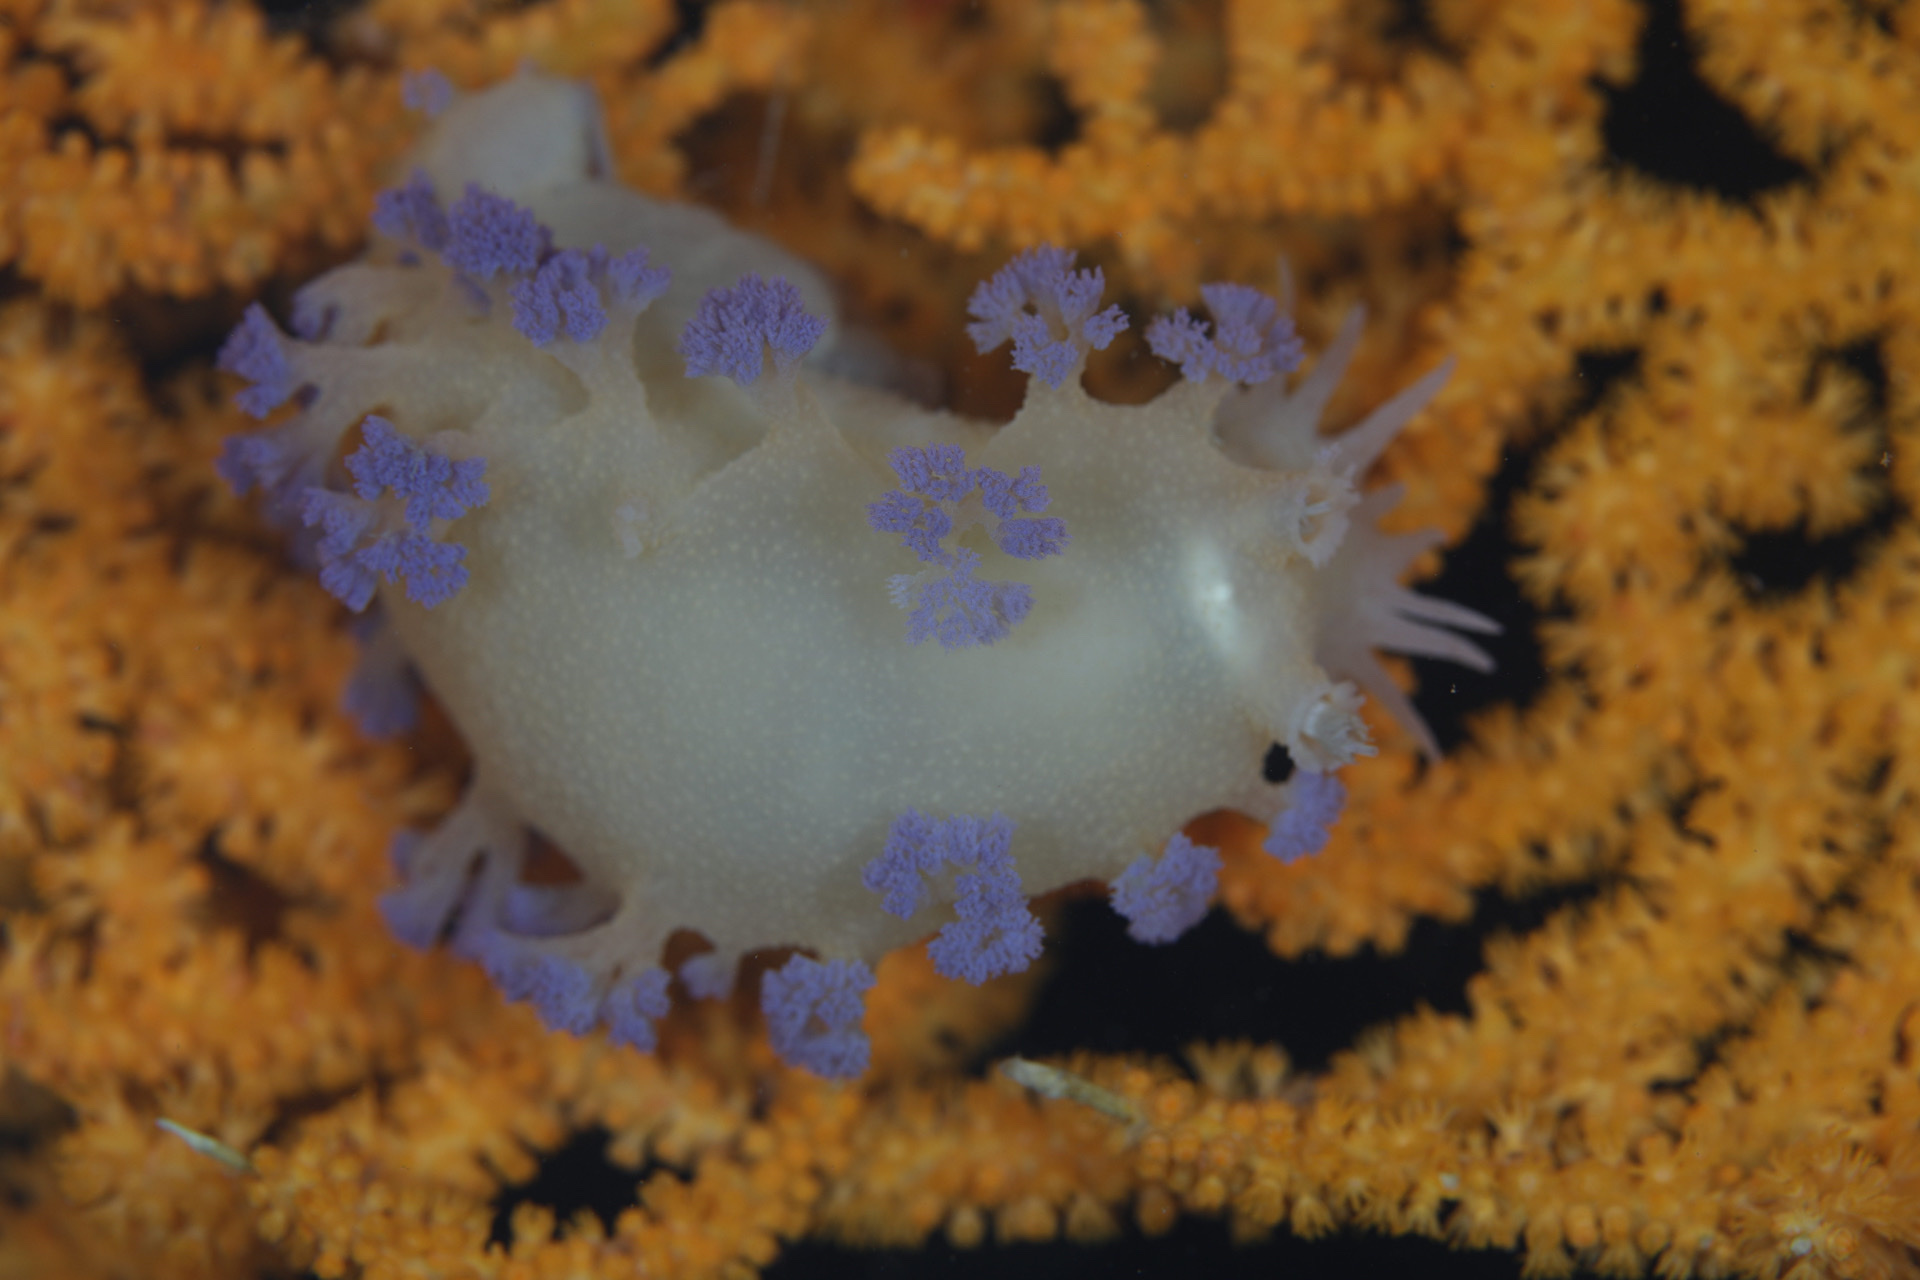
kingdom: Animalia
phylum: Mollusca
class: Gastropoda
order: Nudibranchia
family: Tritoniidae
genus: Tritonia
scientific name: Tritonia griegi
